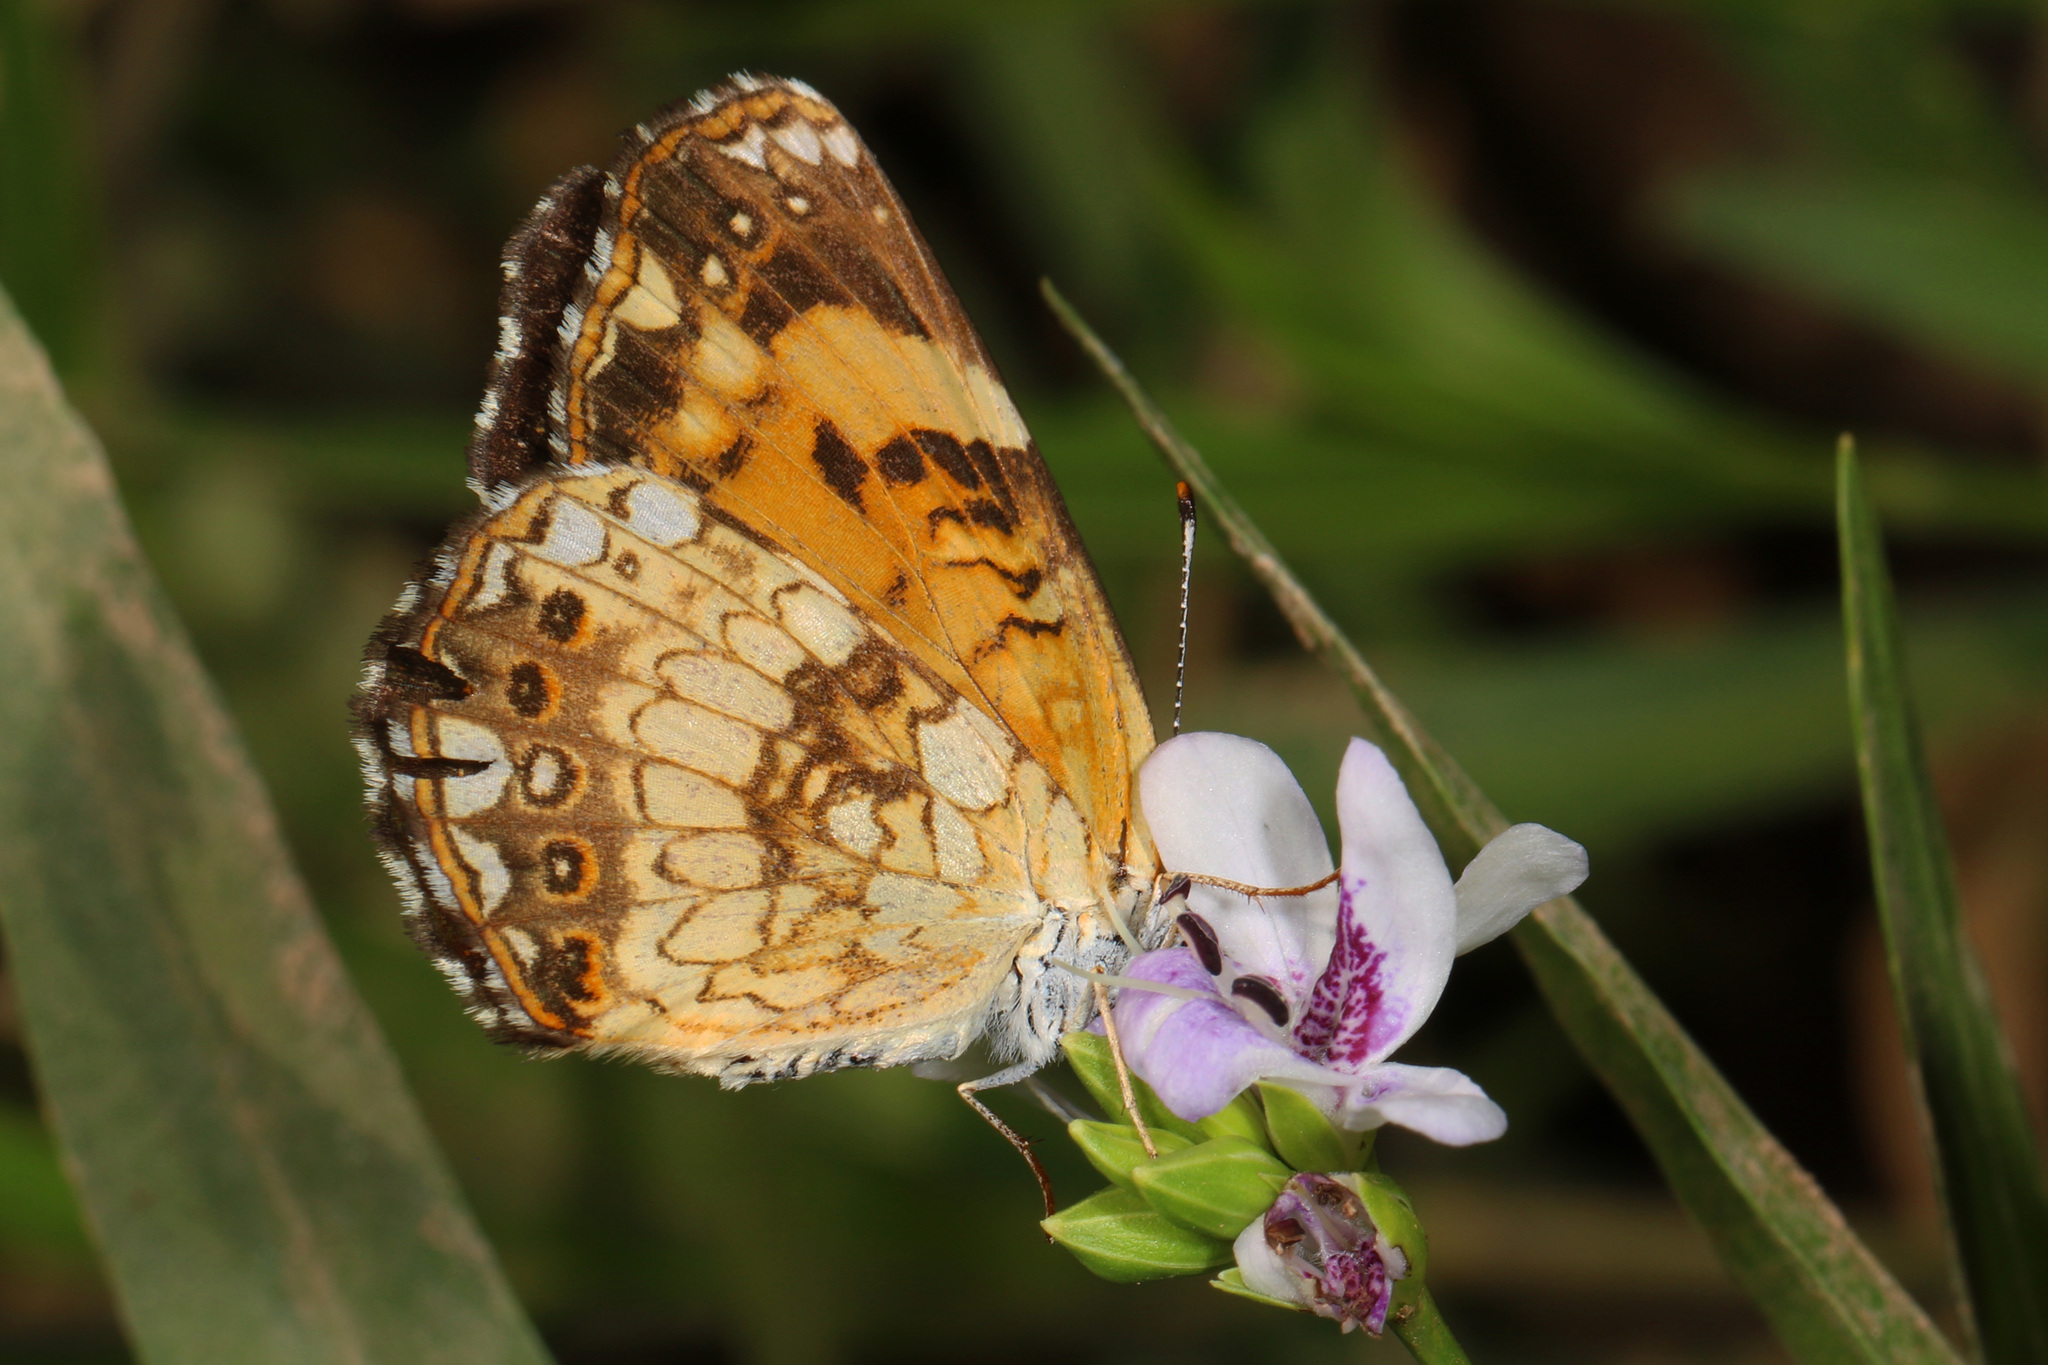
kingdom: Animalia
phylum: Arthropoda
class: Insecta
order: Lepidoptera
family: Nymphalidae
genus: Chlosyne
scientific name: Chlosyne nycteis
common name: Silvery checkerspot
